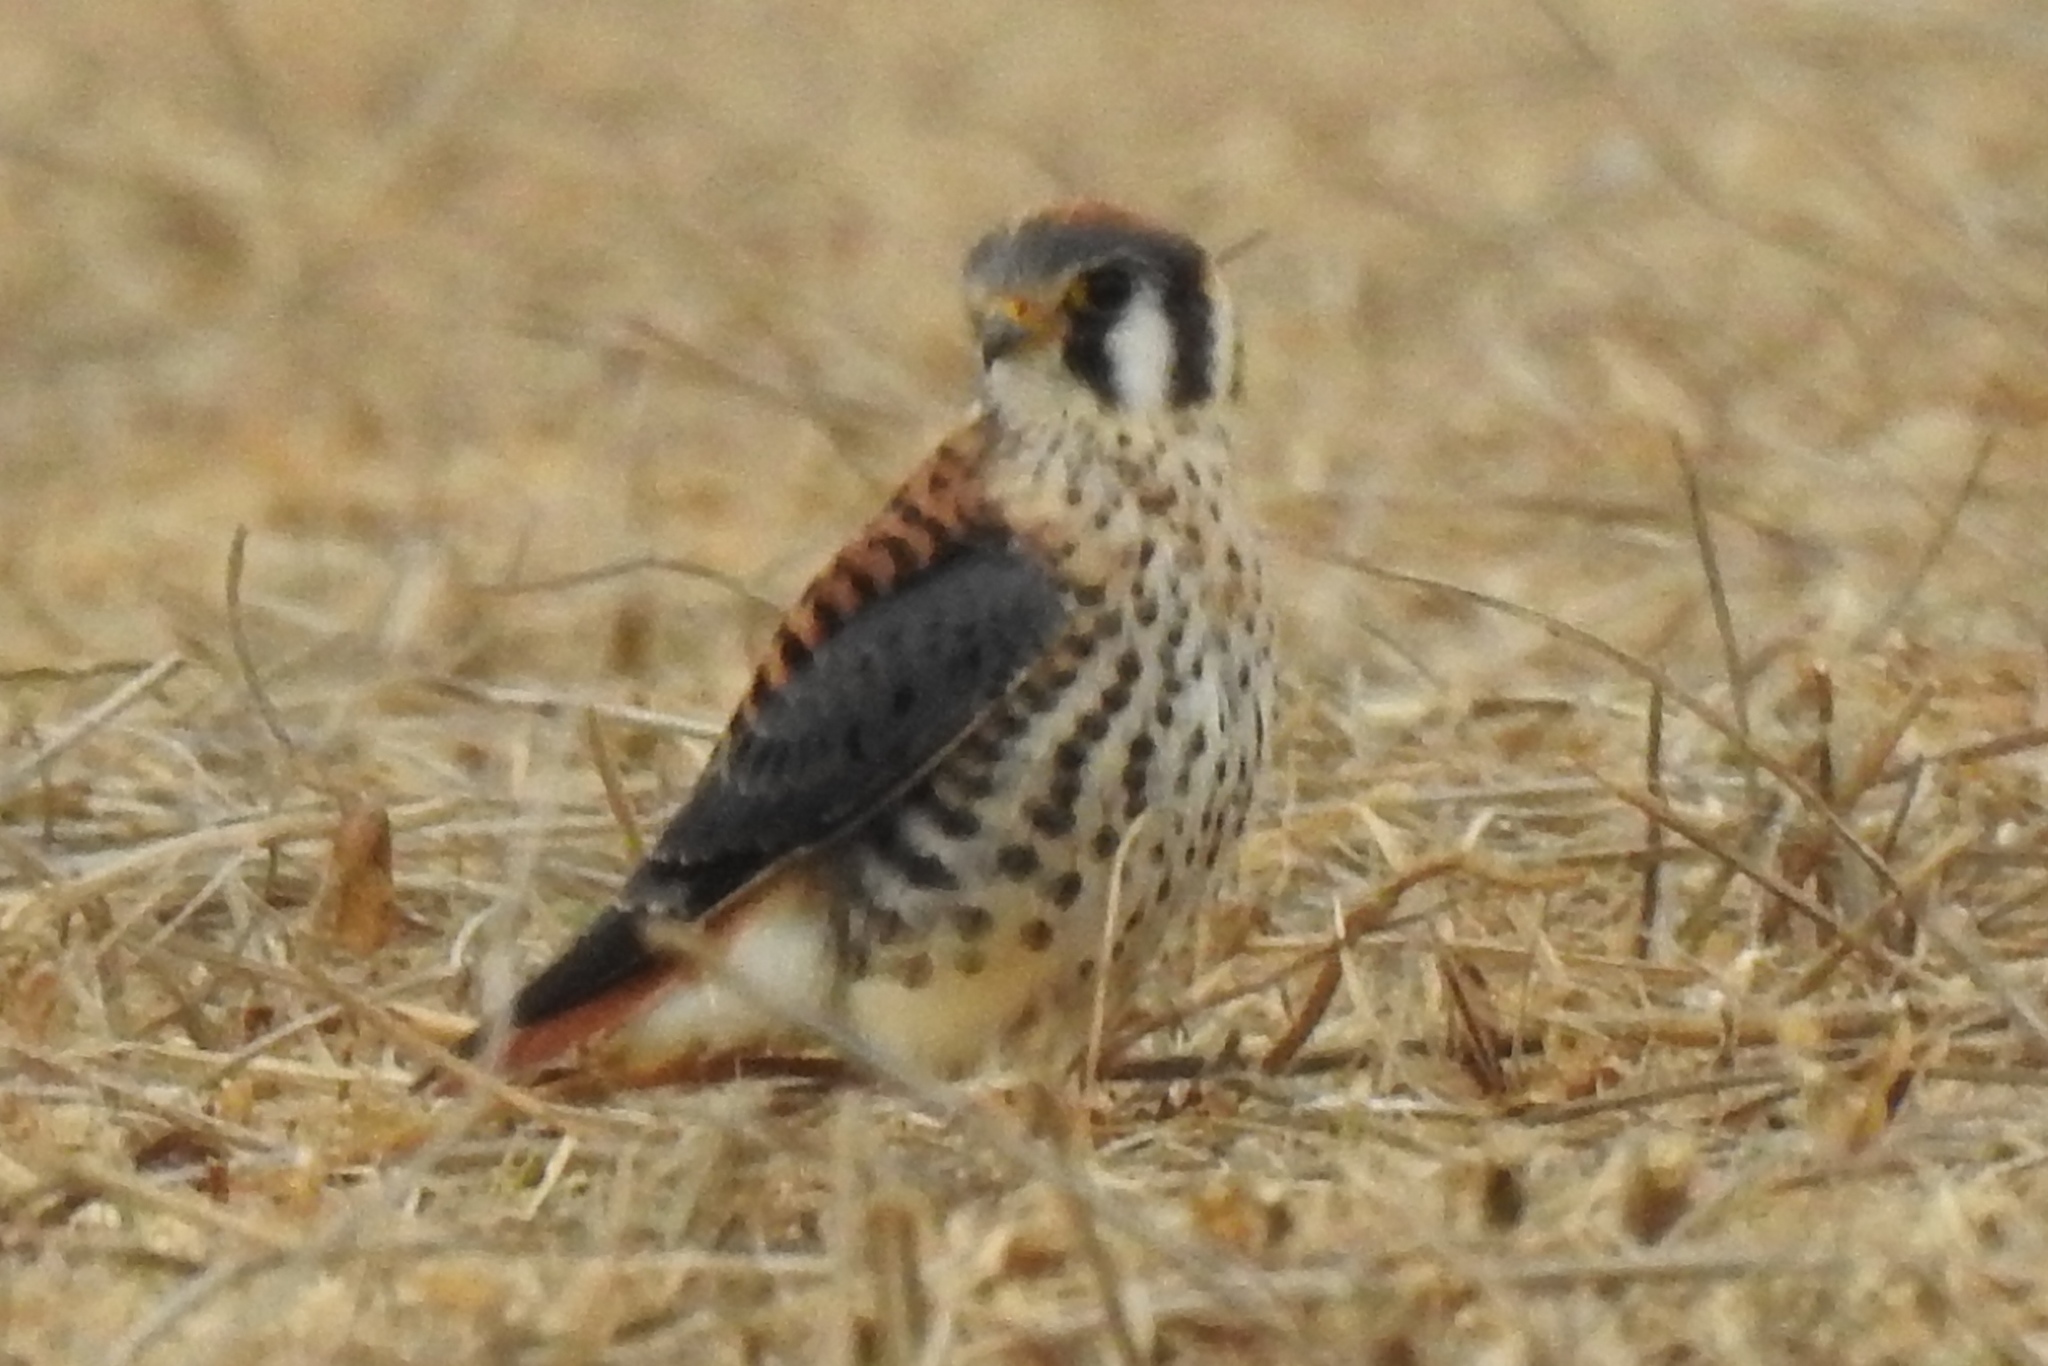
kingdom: Animalia
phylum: Chordata
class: Aves
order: Falconiformes
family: Falconidae
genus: Falco
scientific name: Falco sparverius
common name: American kestrel
